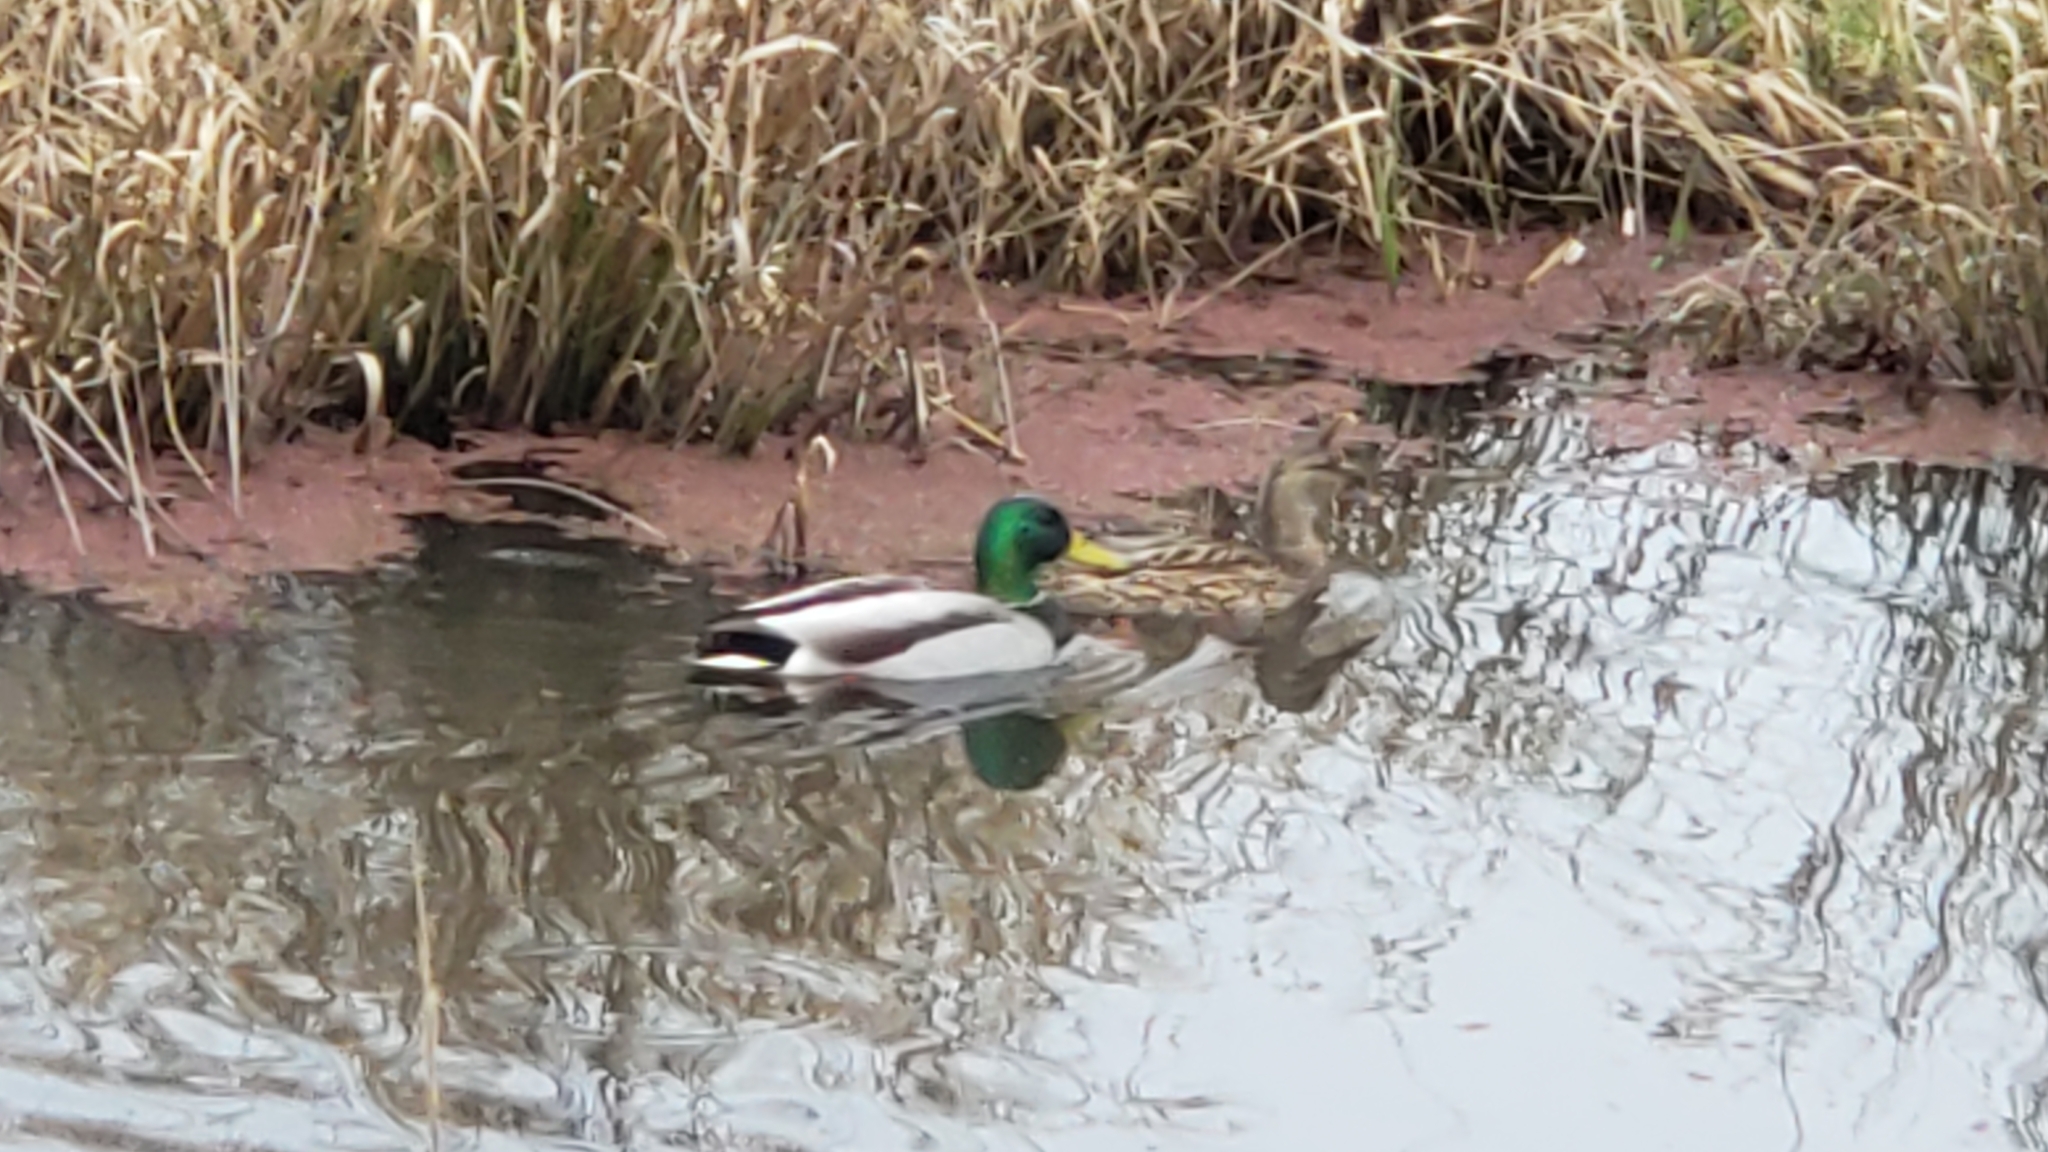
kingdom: Animalia
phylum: Chordata
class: Aves
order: Anseriformes
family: Anatidae
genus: Anas
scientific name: Anas platyrhynchos
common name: Mallard
